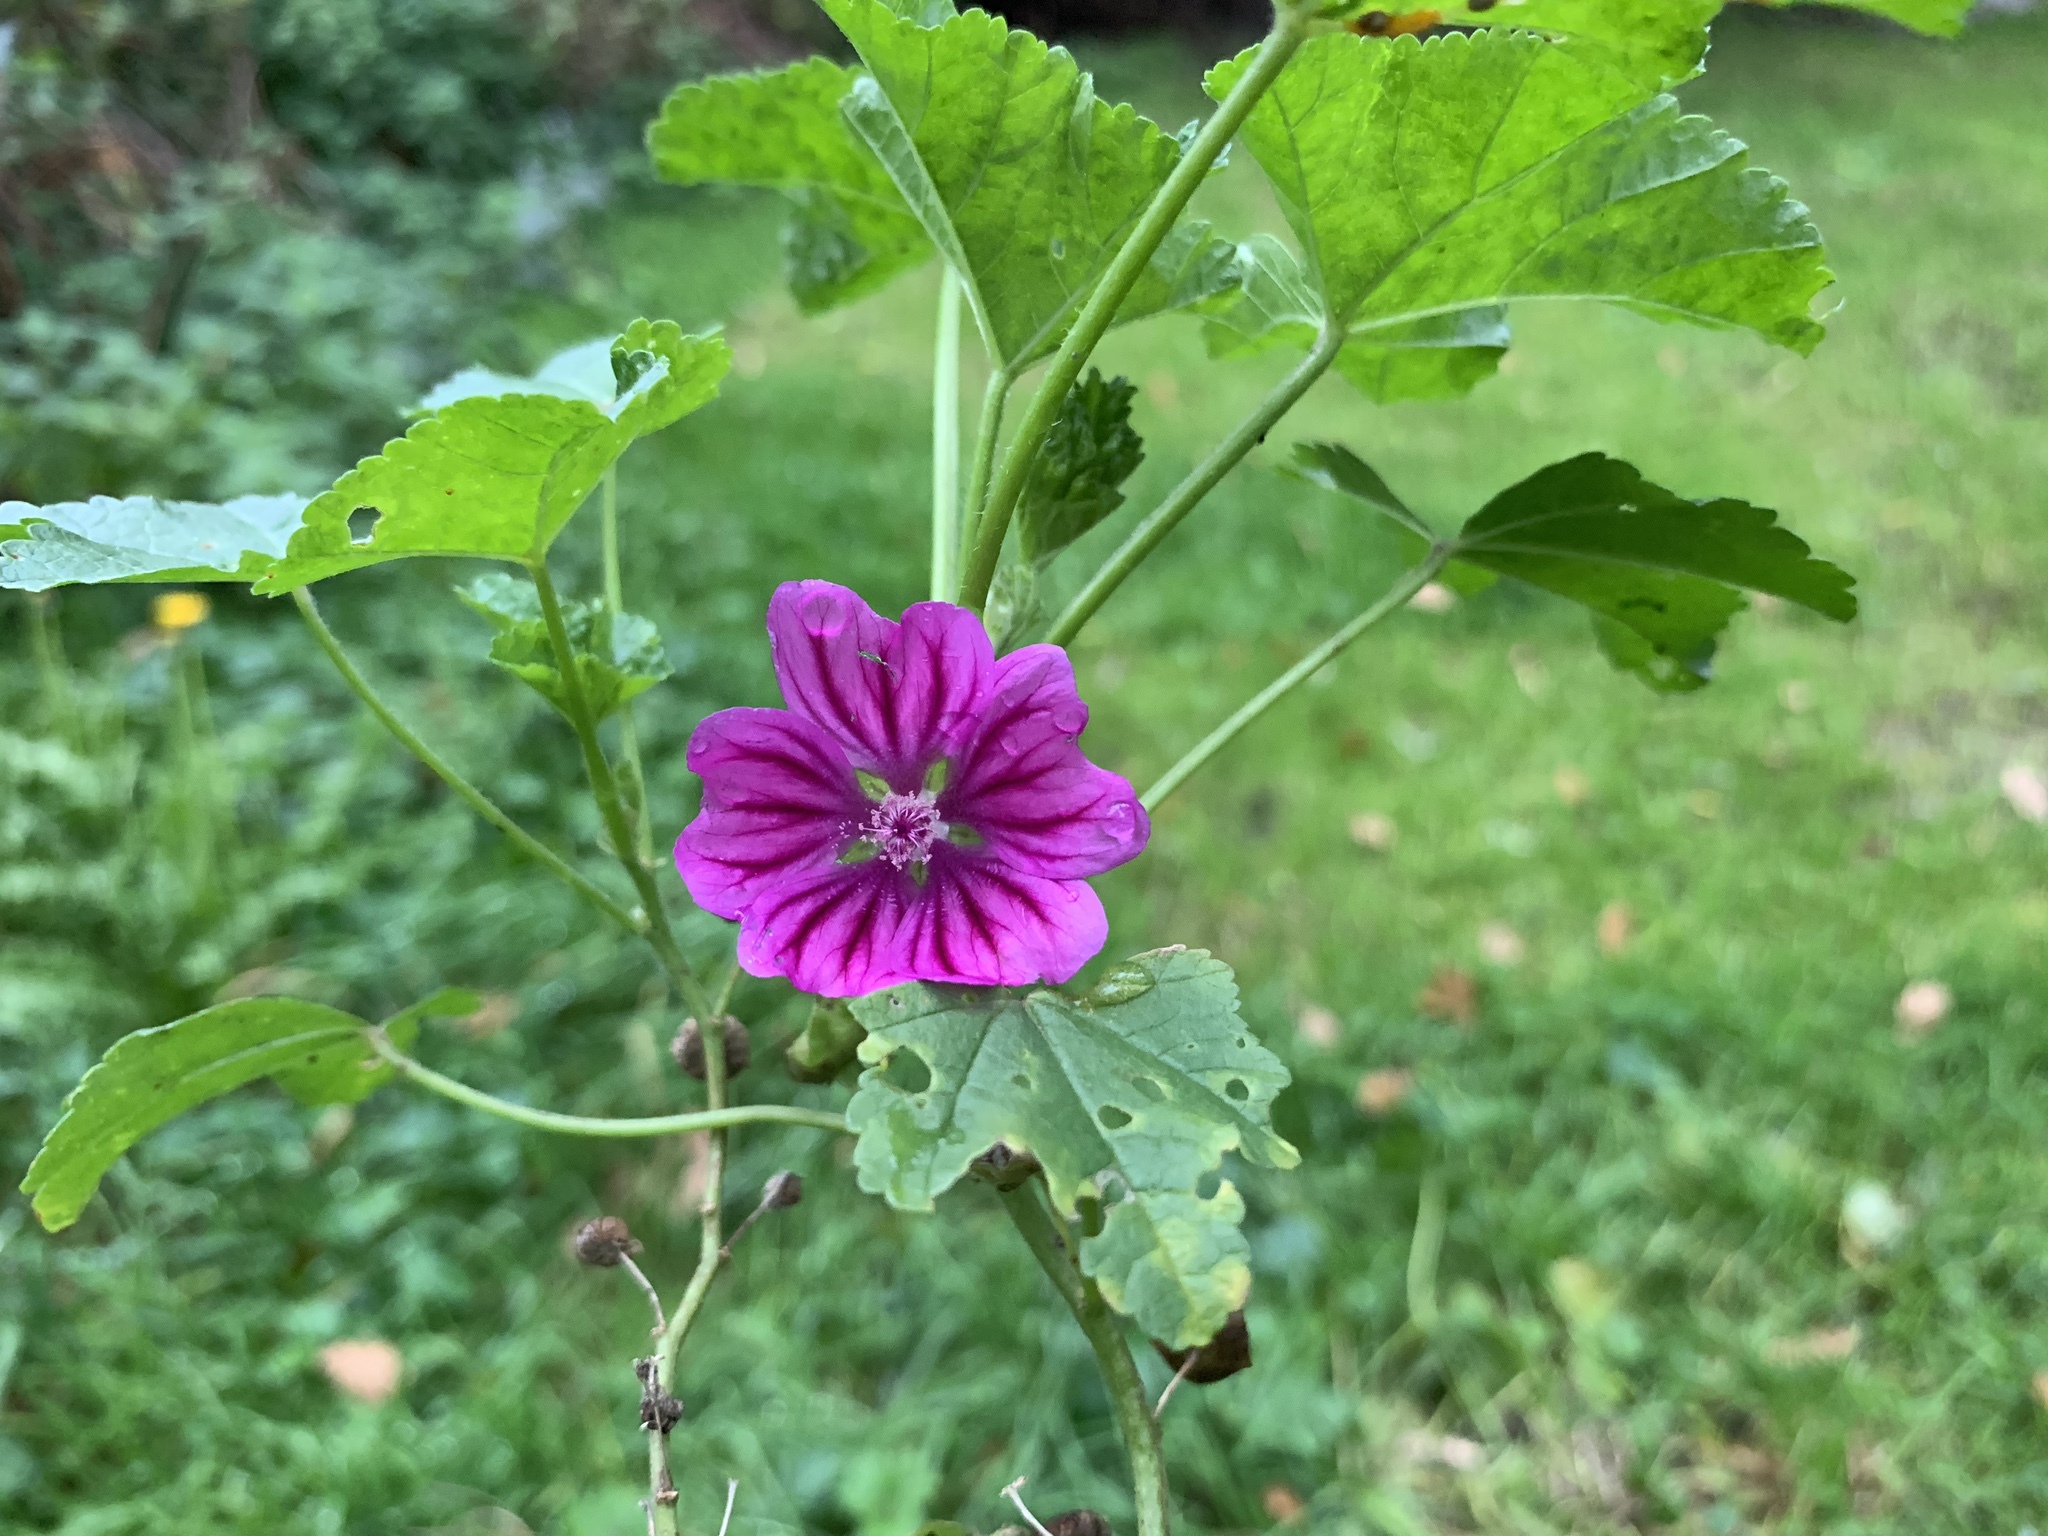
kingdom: Plantae
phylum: Tracheophyta
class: Magnoliopsida
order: Malvales
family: Malvaceae
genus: Malva
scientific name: Malva sylvestris
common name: Common mallow
